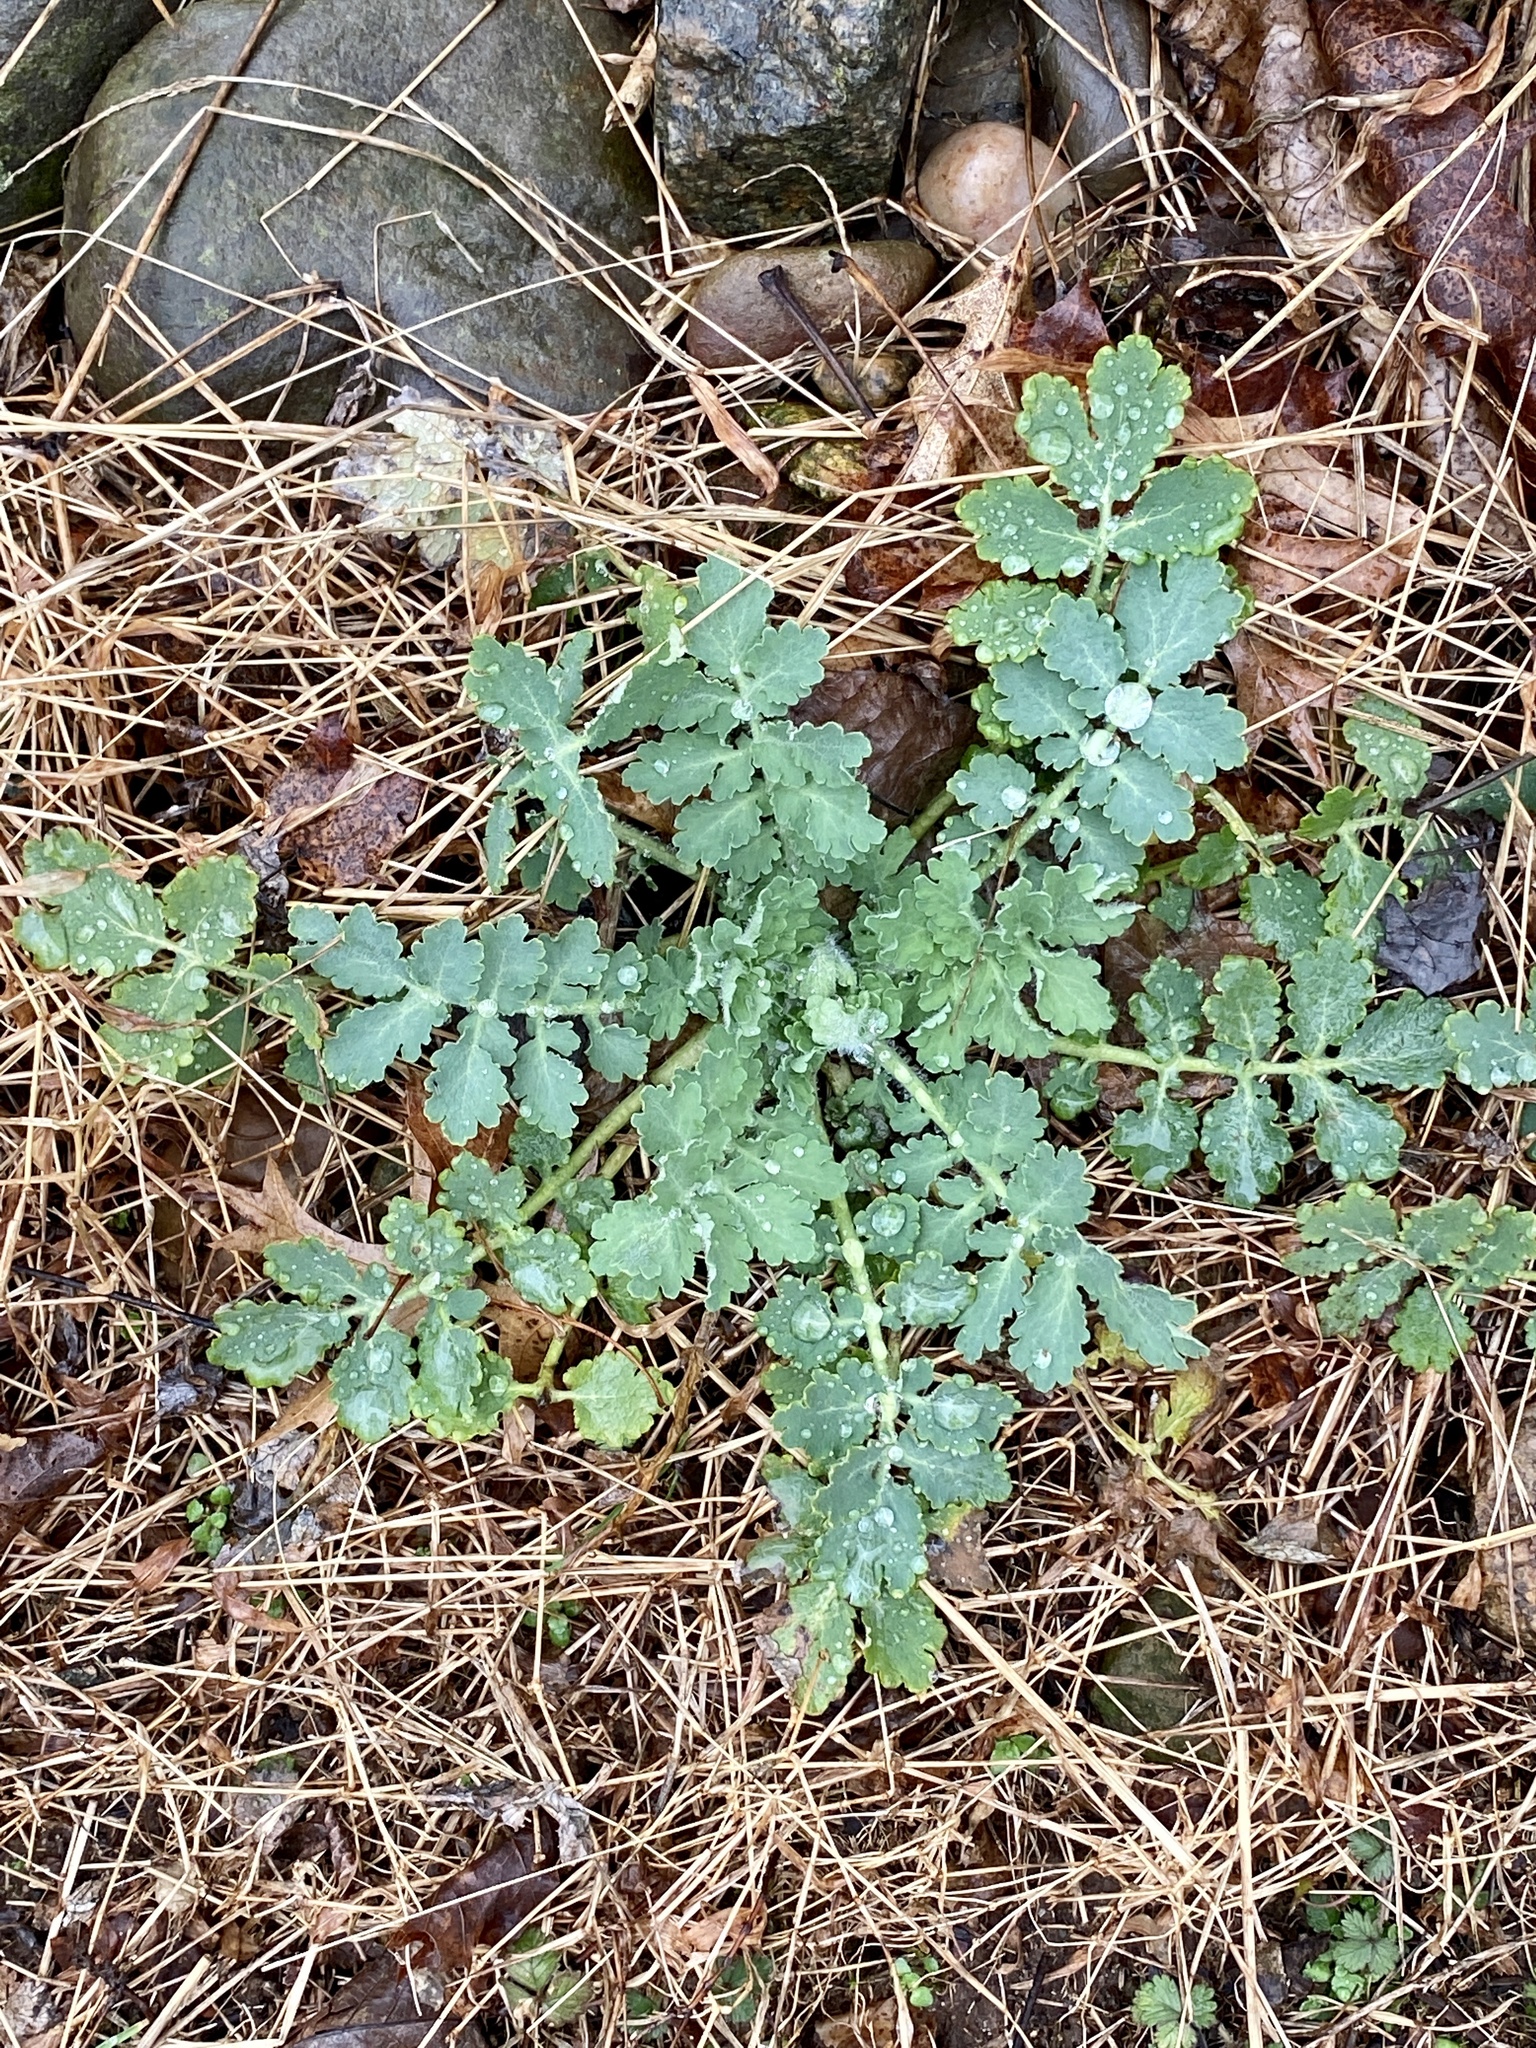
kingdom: Plantae
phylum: Tracheophyta
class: Magnoliopsida
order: Ranunculales
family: Papaveraceae
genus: Chelidonium
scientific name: Chelidonium majus
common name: Greater celandine
